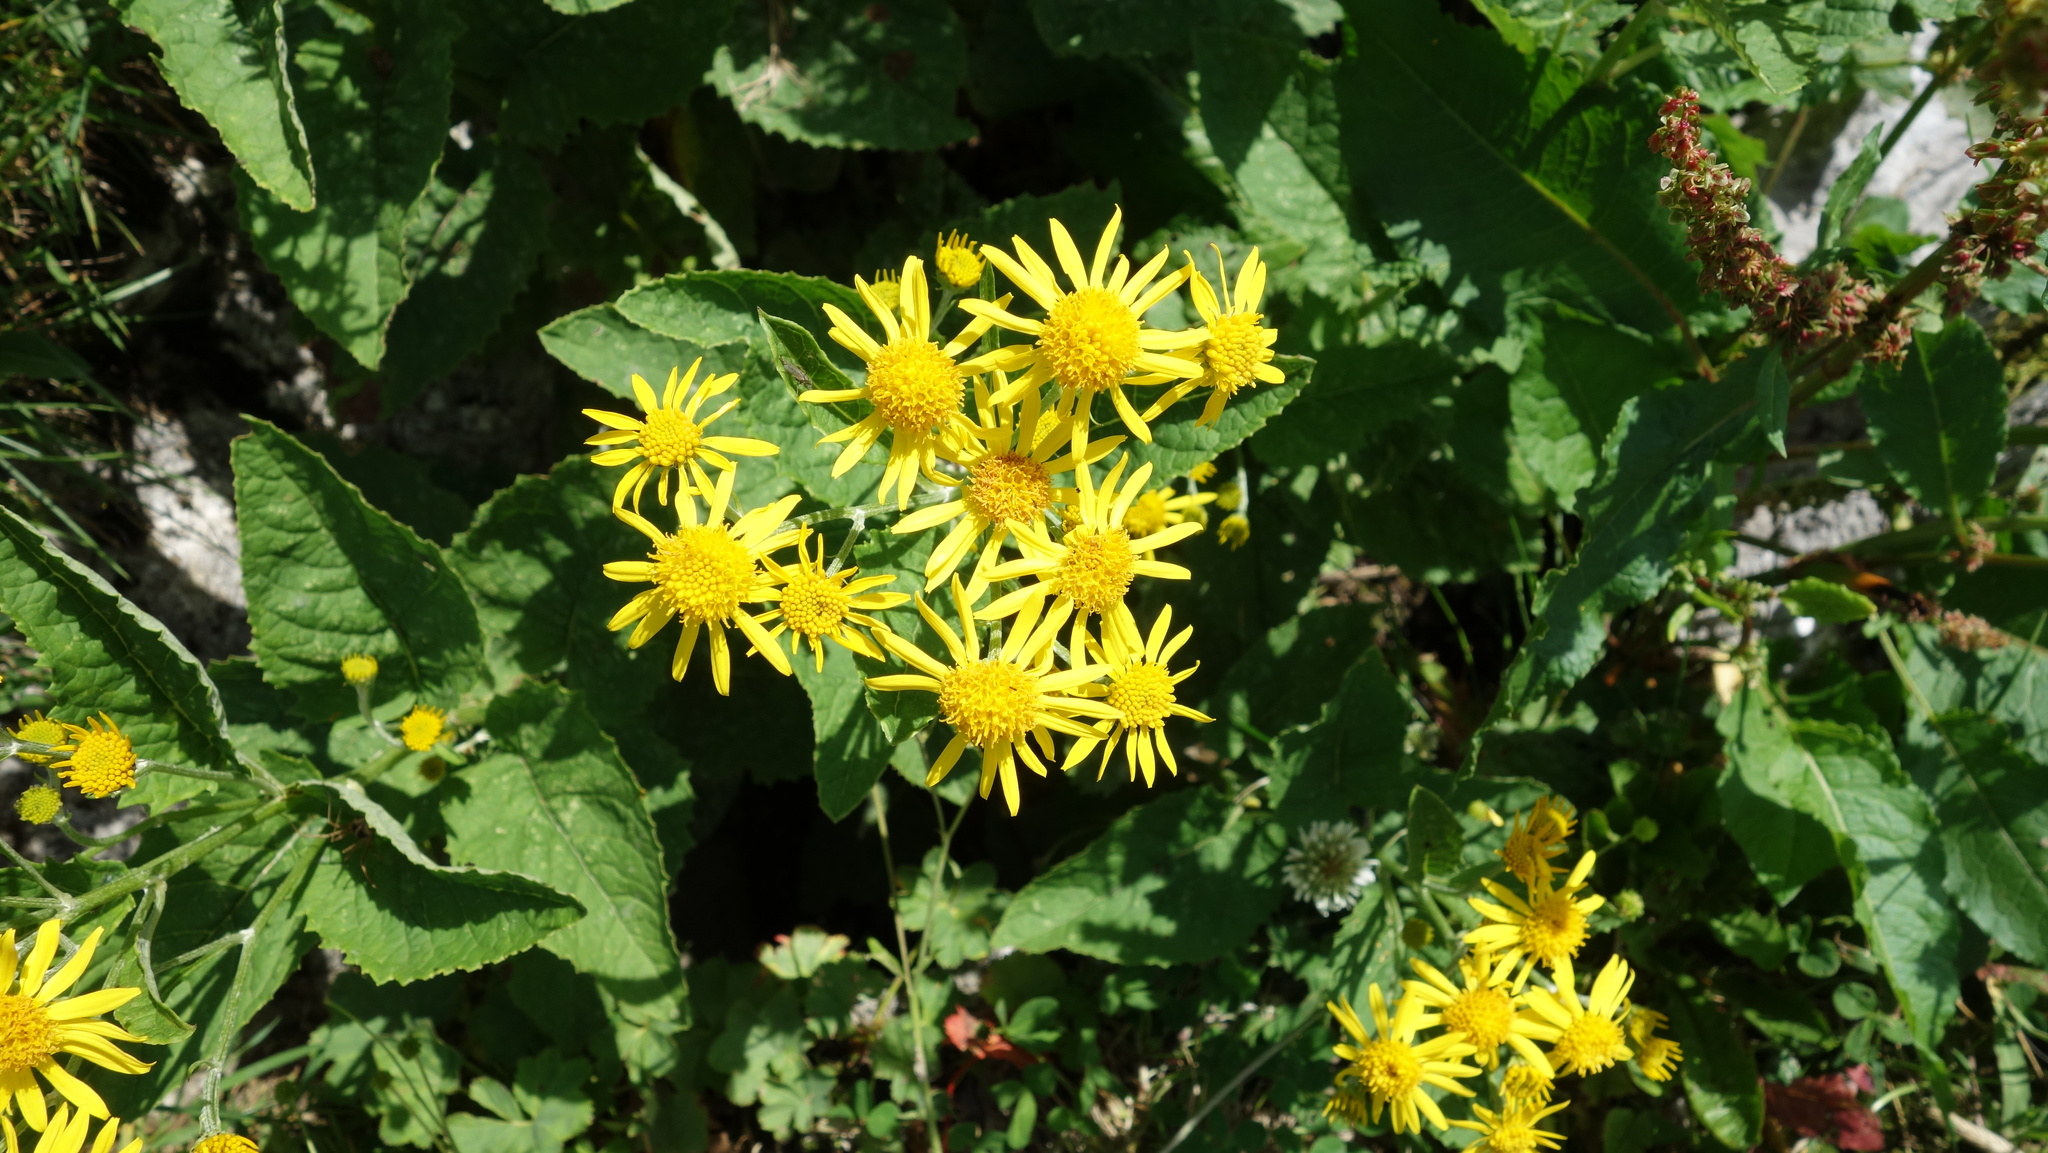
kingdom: Plantae
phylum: Tracheophyta
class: Magnoliopsida
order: Asterales
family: Asteraceae
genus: Jacobaea
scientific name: Jacobaea alpina
